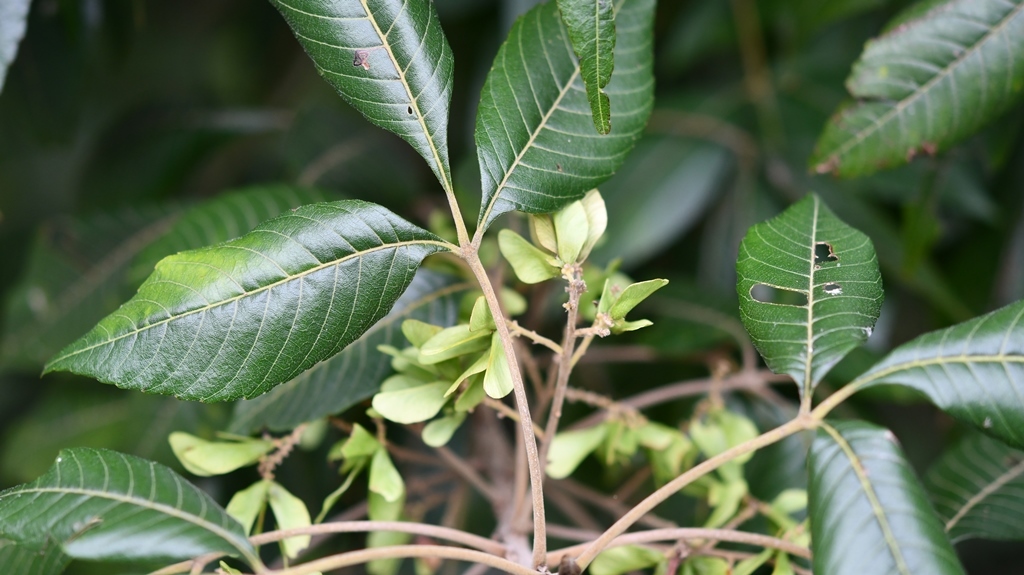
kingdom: Plantae
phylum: Tracheophyta
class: Magnoliopsida
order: Sapindales
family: Sapindaceae
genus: Thouinia
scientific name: Thouinia serrata
